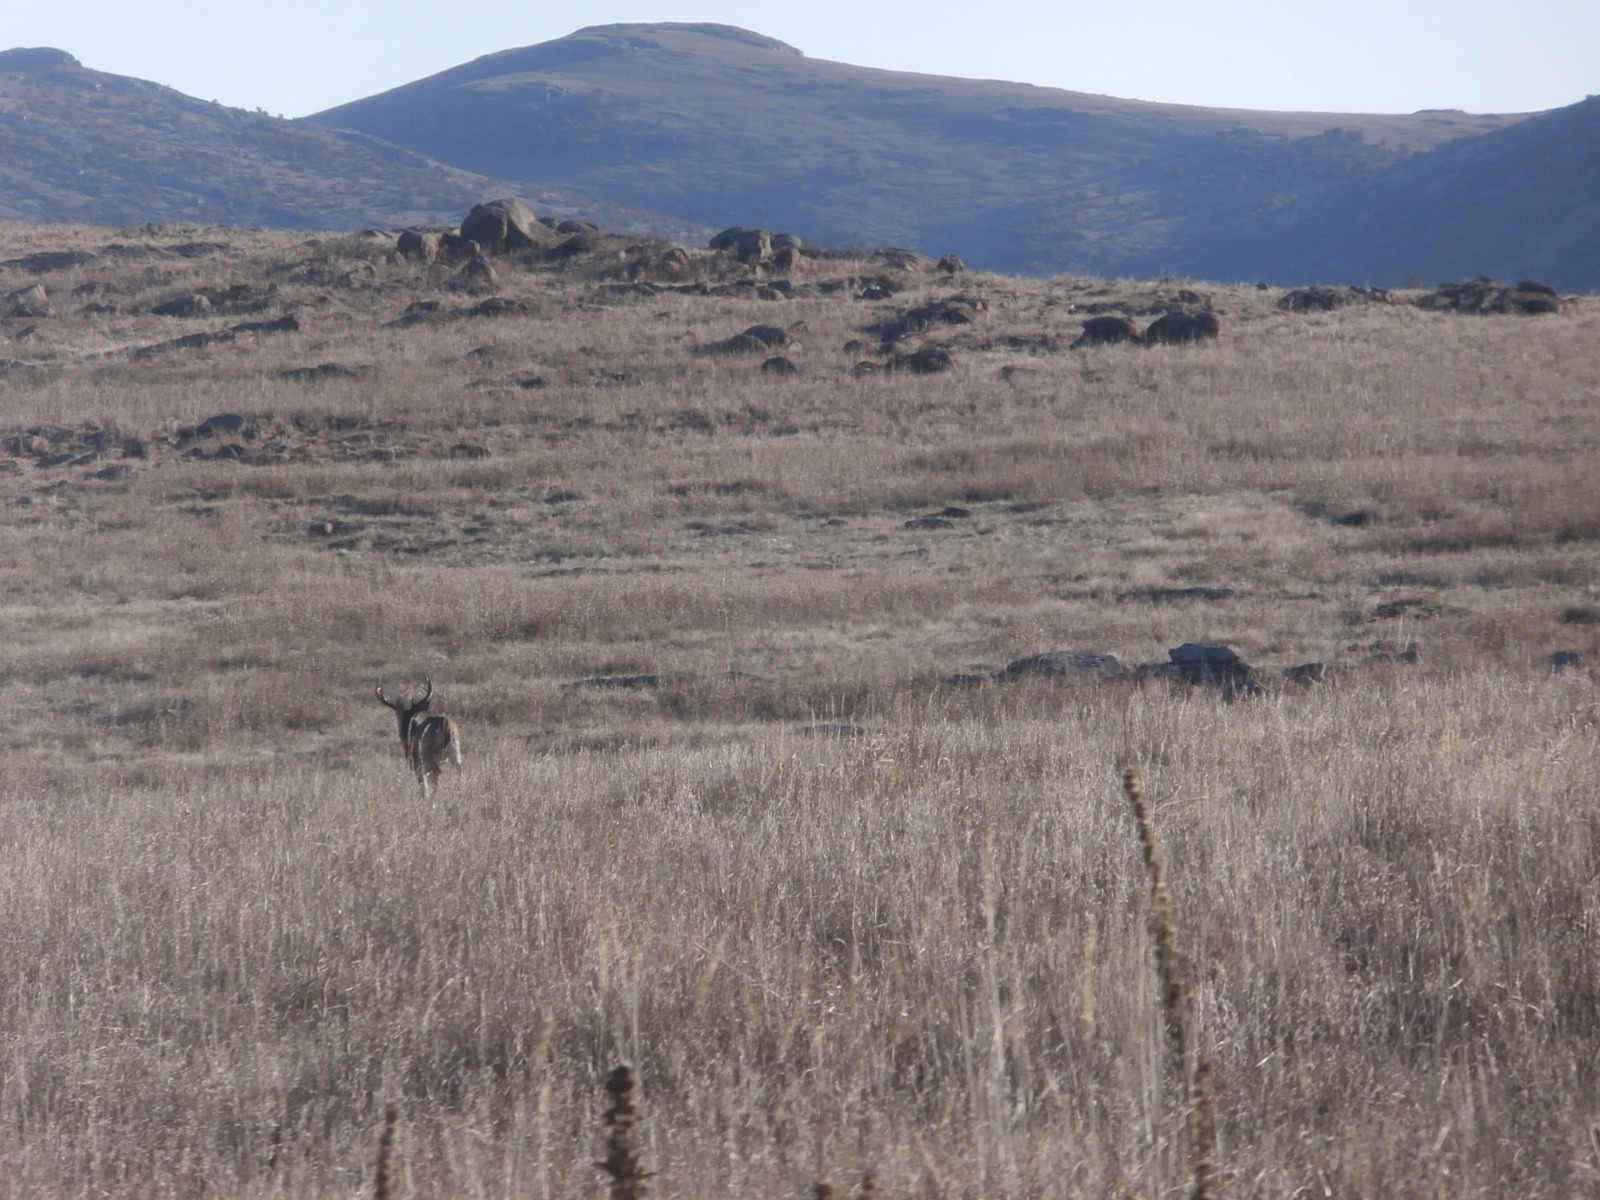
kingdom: Animalia
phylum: Chordata
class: Mammalia
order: Artiodactyla
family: Cervidae
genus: Odocoileus
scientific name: Odocoileus virginianus
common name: White-tailed deer
